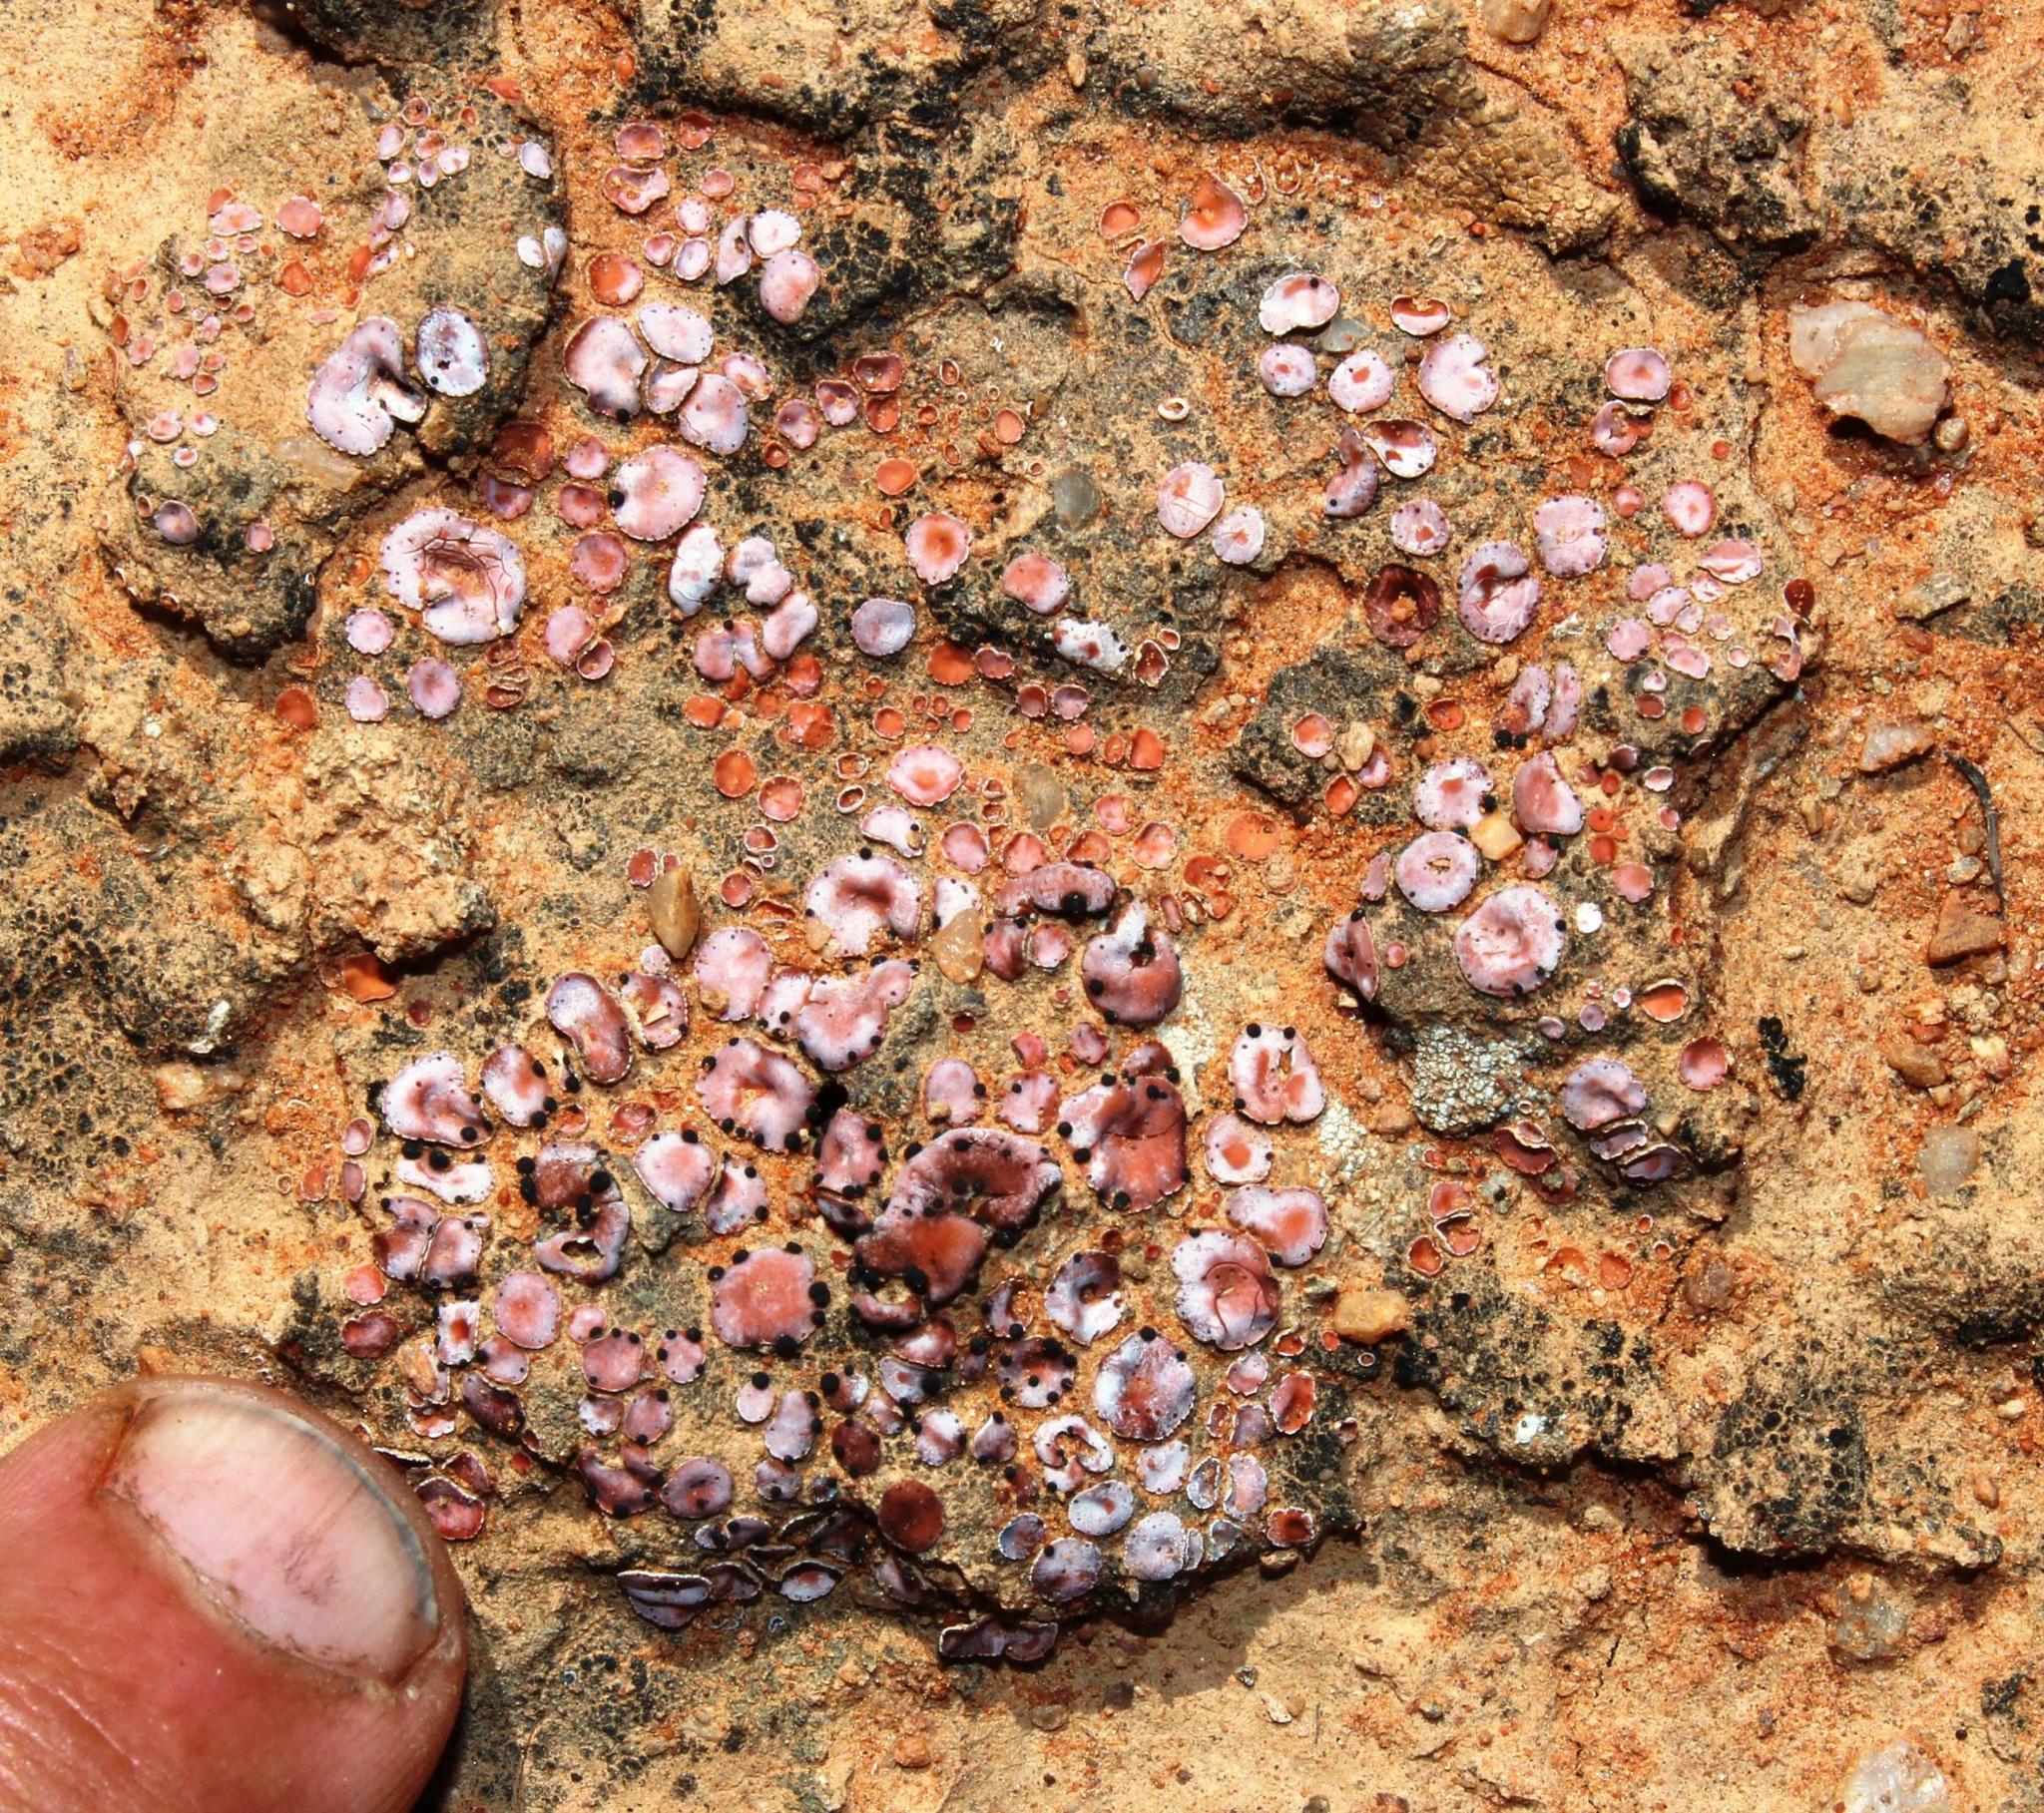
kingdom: Fungi
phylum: Ascomycota
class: Lecanoromycetes
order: Lecanorales
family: Psoraceae
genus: Psora
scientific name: Psora crenata
